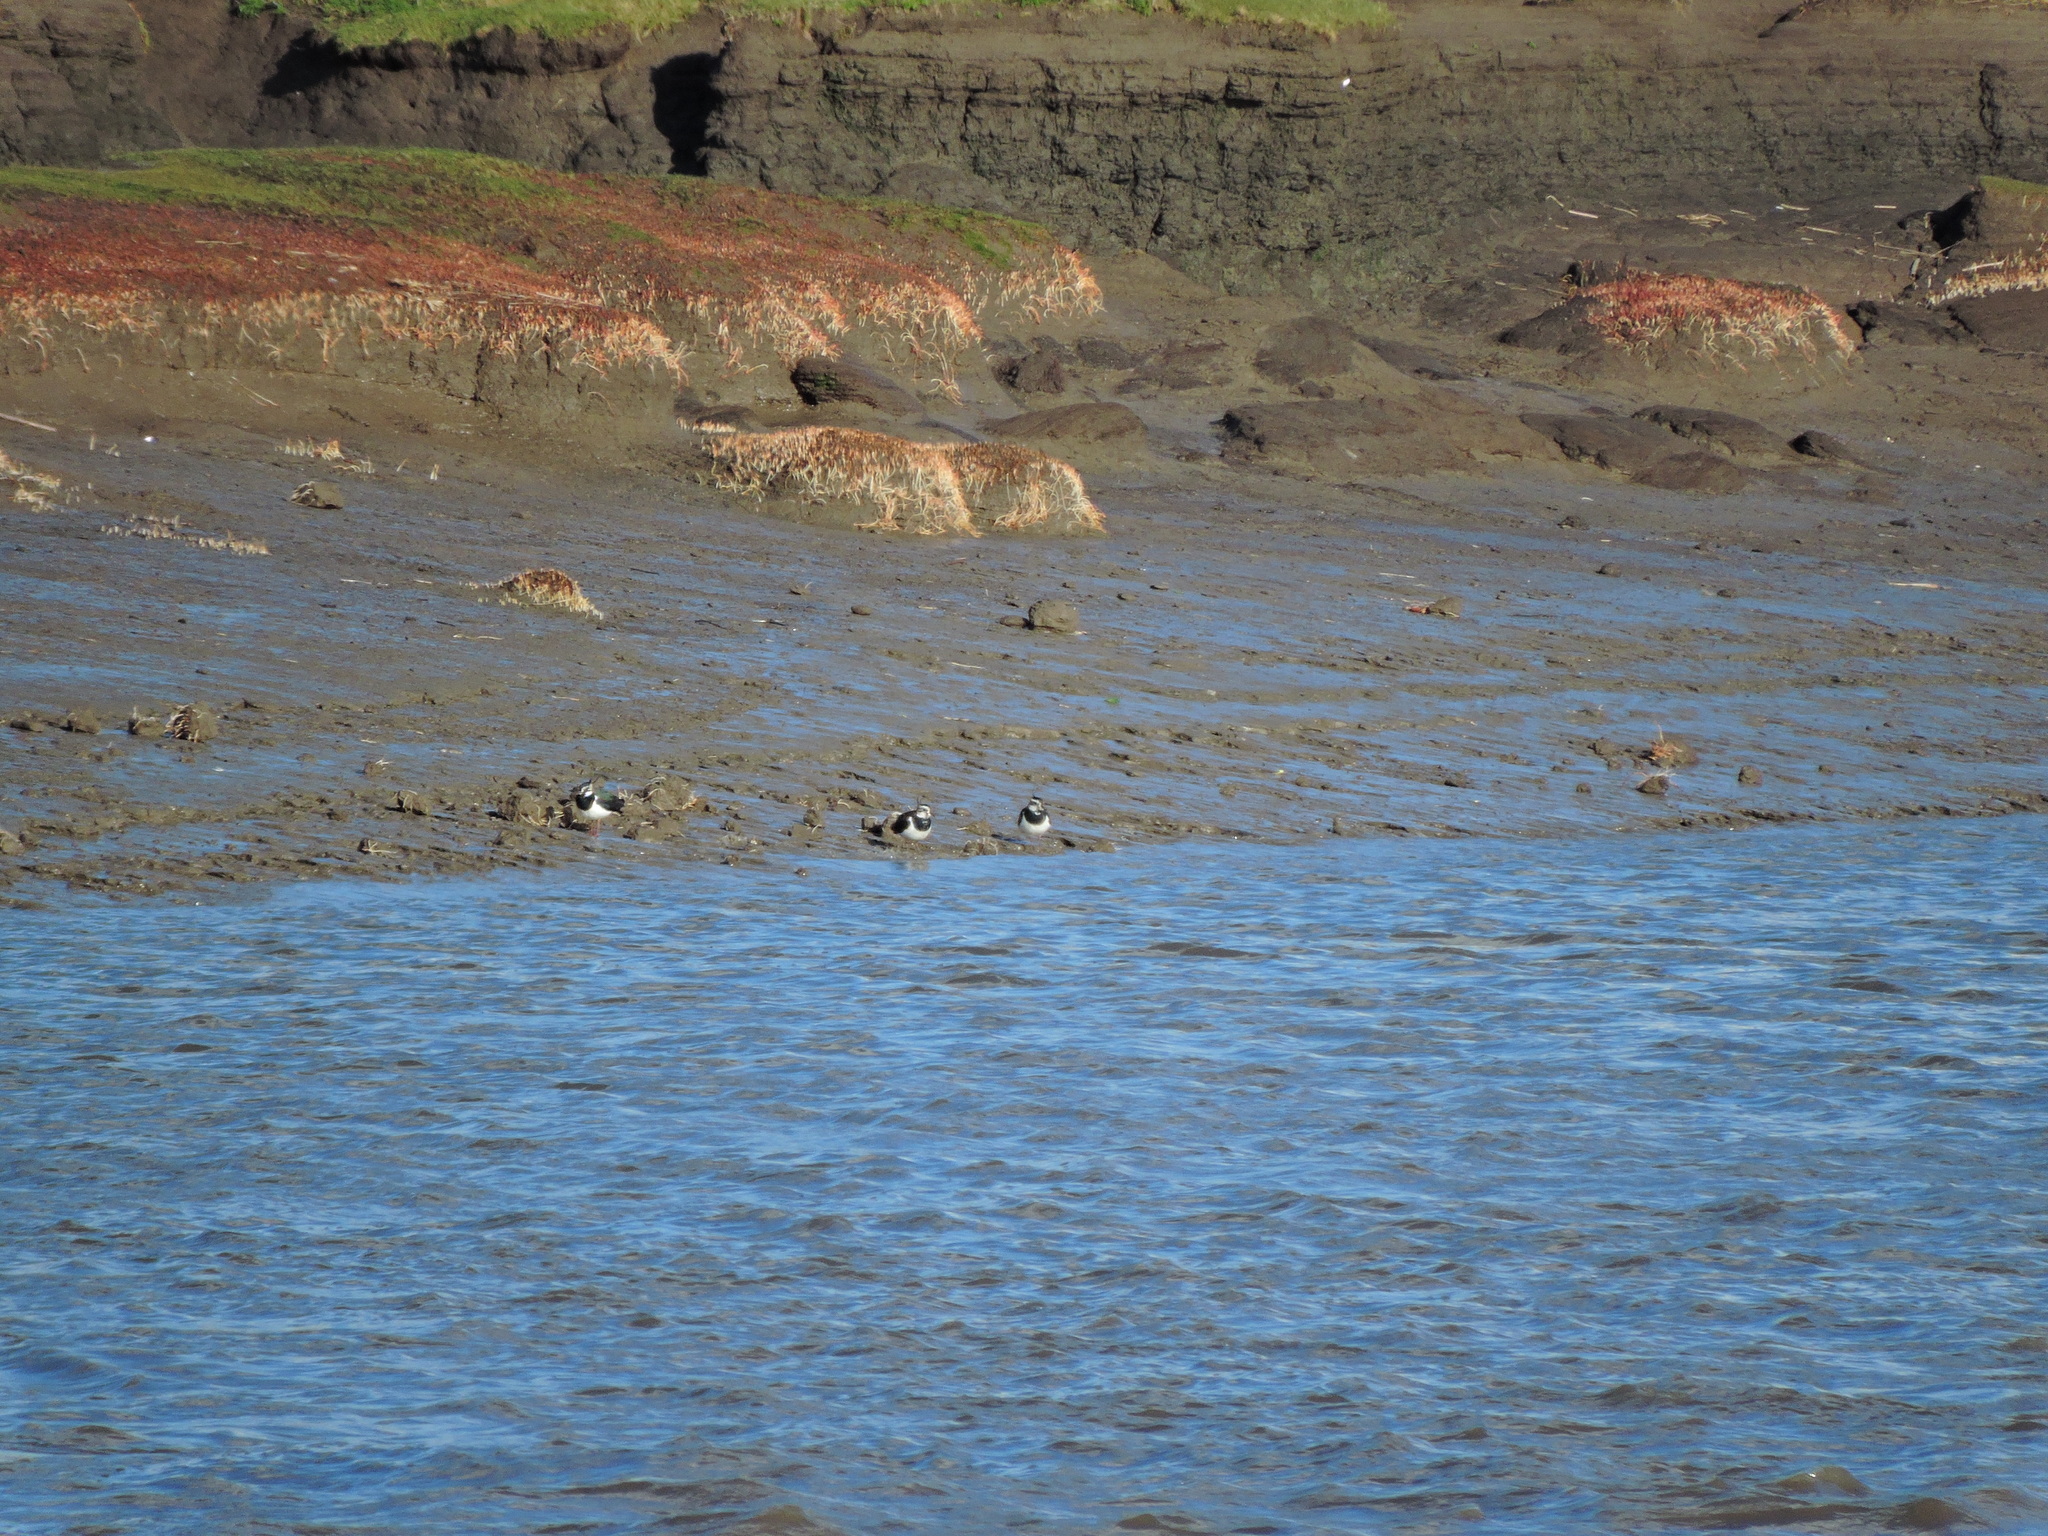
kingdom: Animalia
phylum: Chordata
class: Aves
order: Charadriiformes
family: Charadriidae
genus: Vanellus
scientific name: Vanellus vanellus
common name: Northern lapwing
